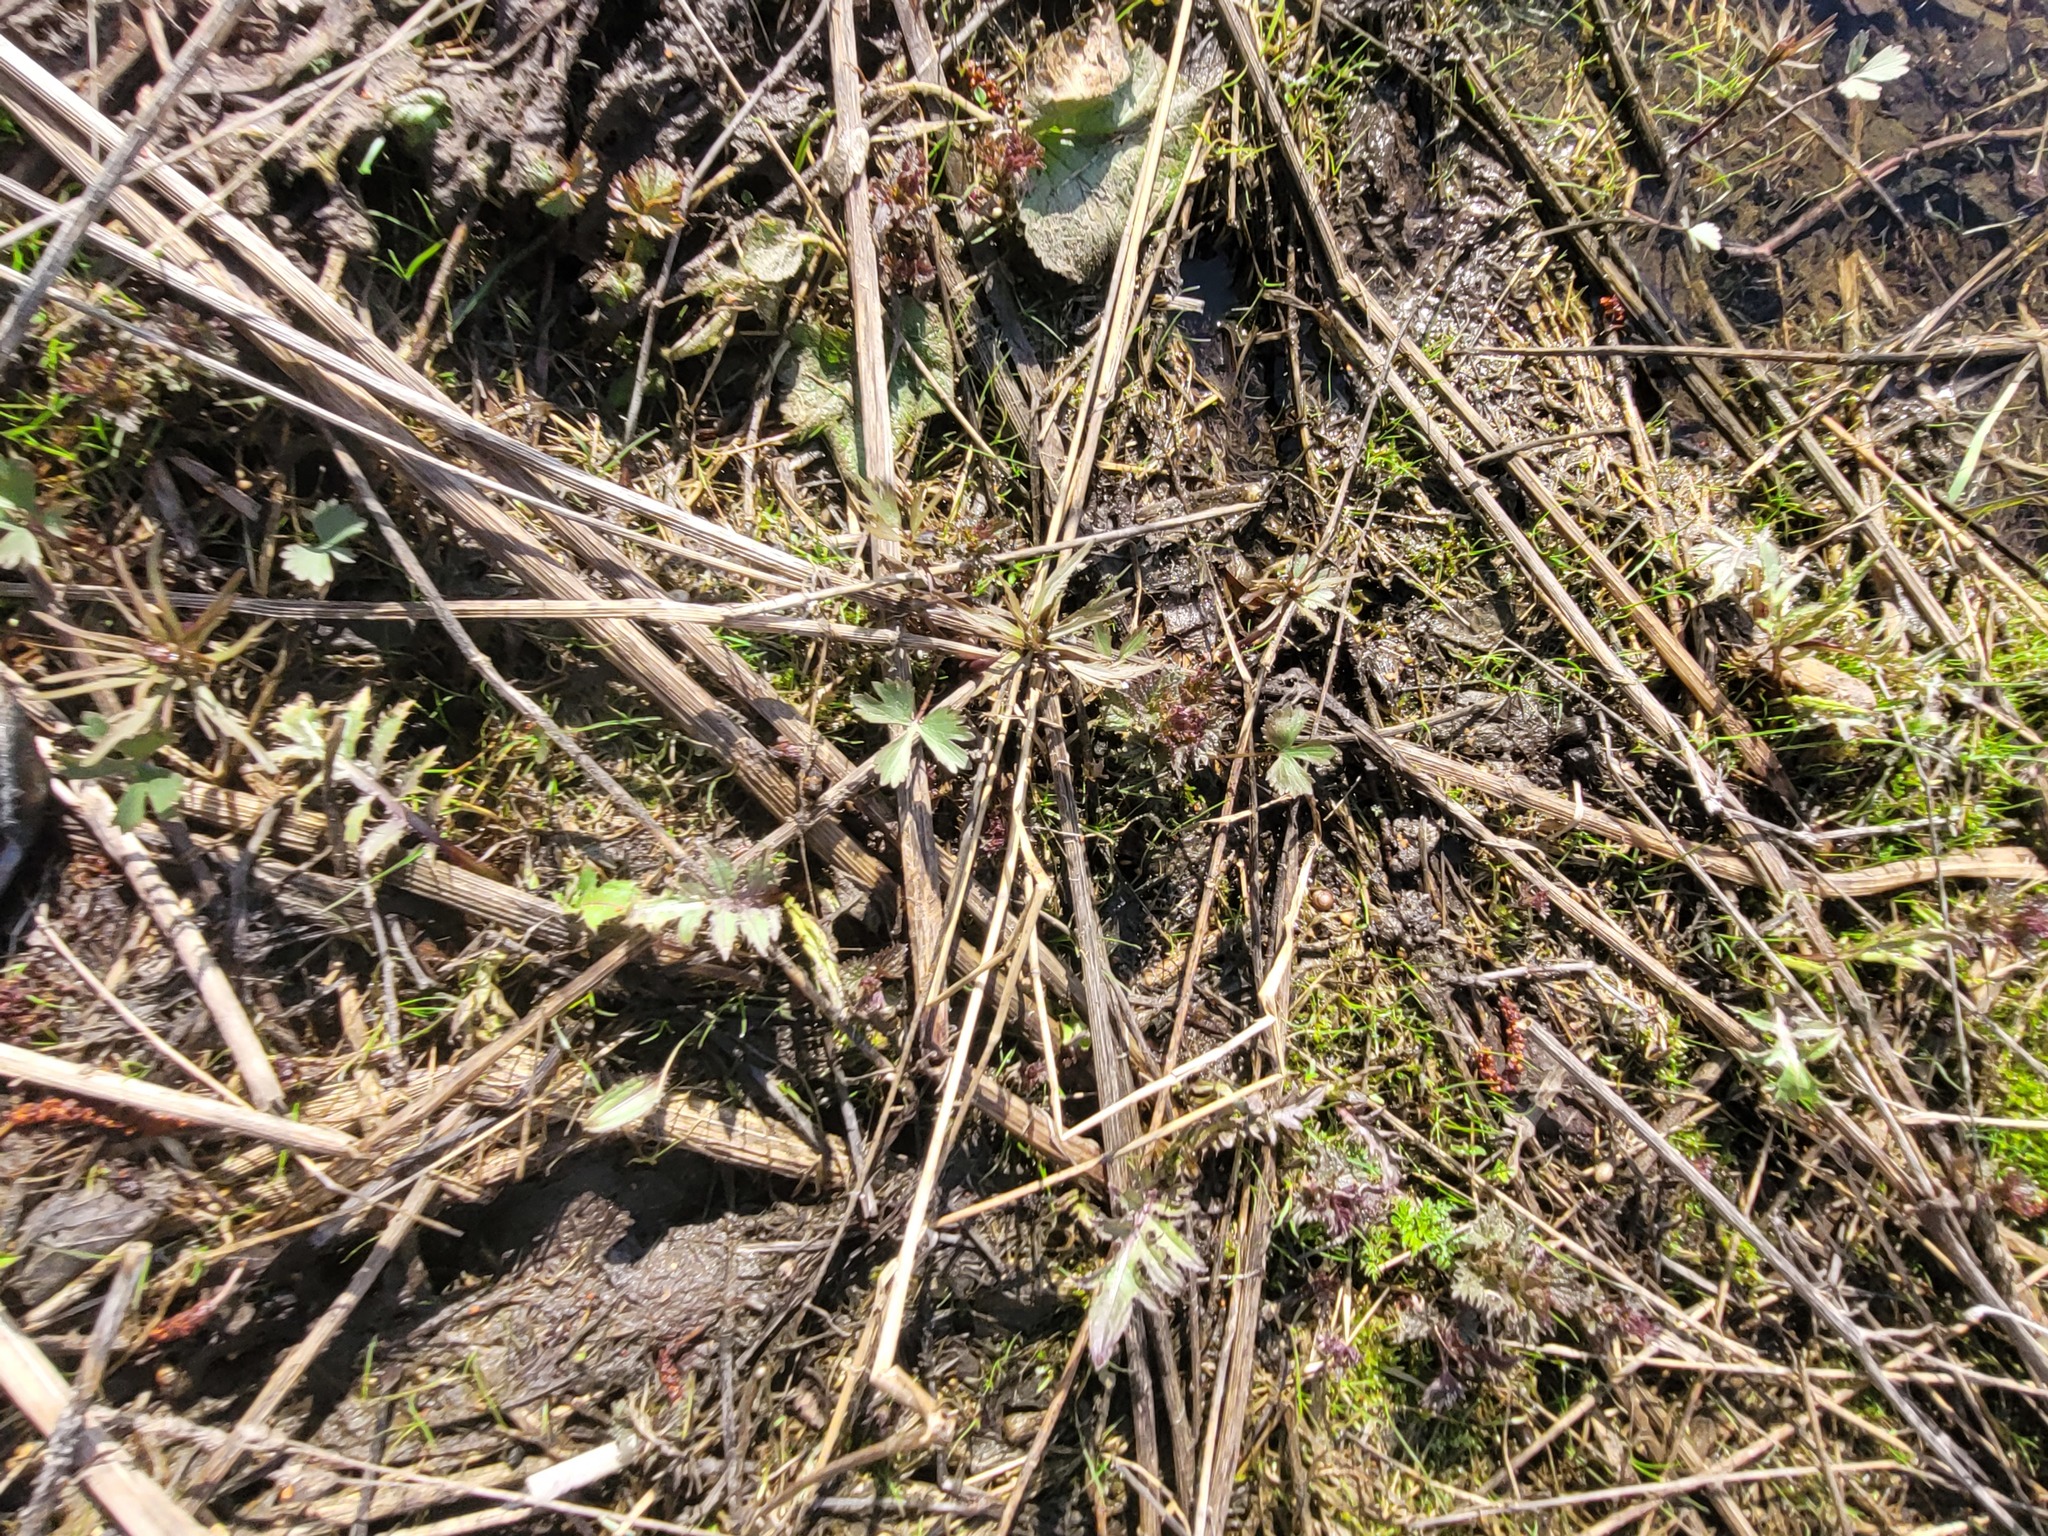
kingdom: Plantae
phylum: Tracheophyta
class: Magnoliopsida
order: Ranunculales
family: Ranunculaceae
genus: Ranunculus
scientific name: Ranunculus auricomus
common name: Goldilocks buttercup
